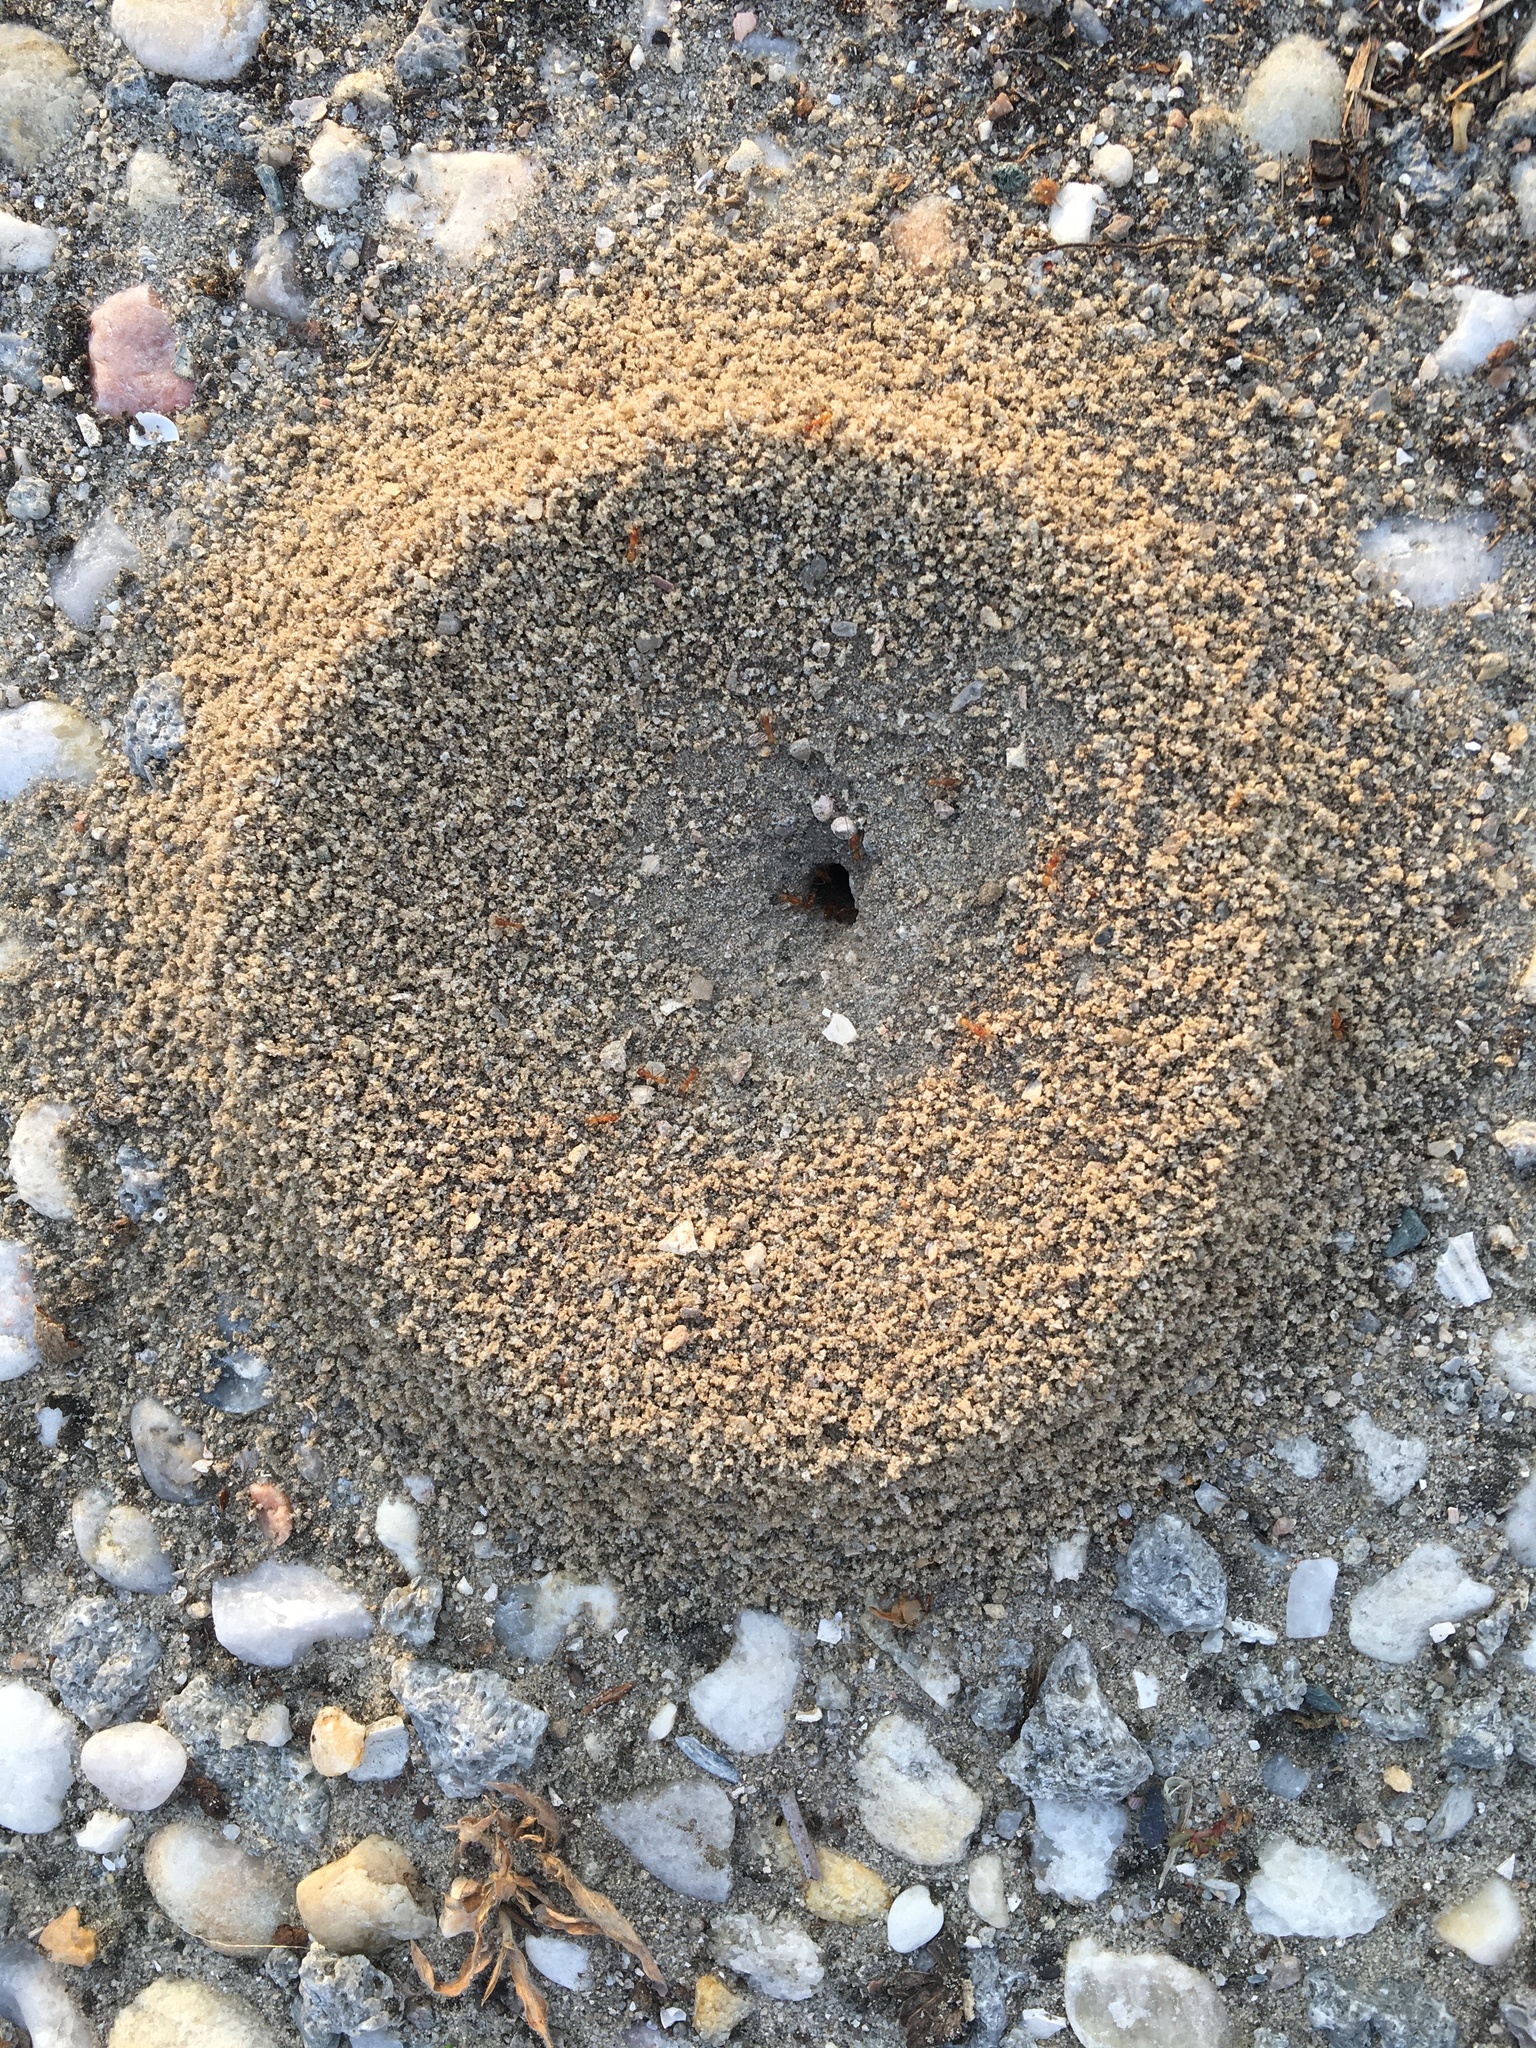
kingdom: Animalia
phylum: Arthropoda
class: Insecta
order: Hymenoptera
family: Formicidae
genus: Dorymyrmex
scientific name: Dorymyrmex bureni
